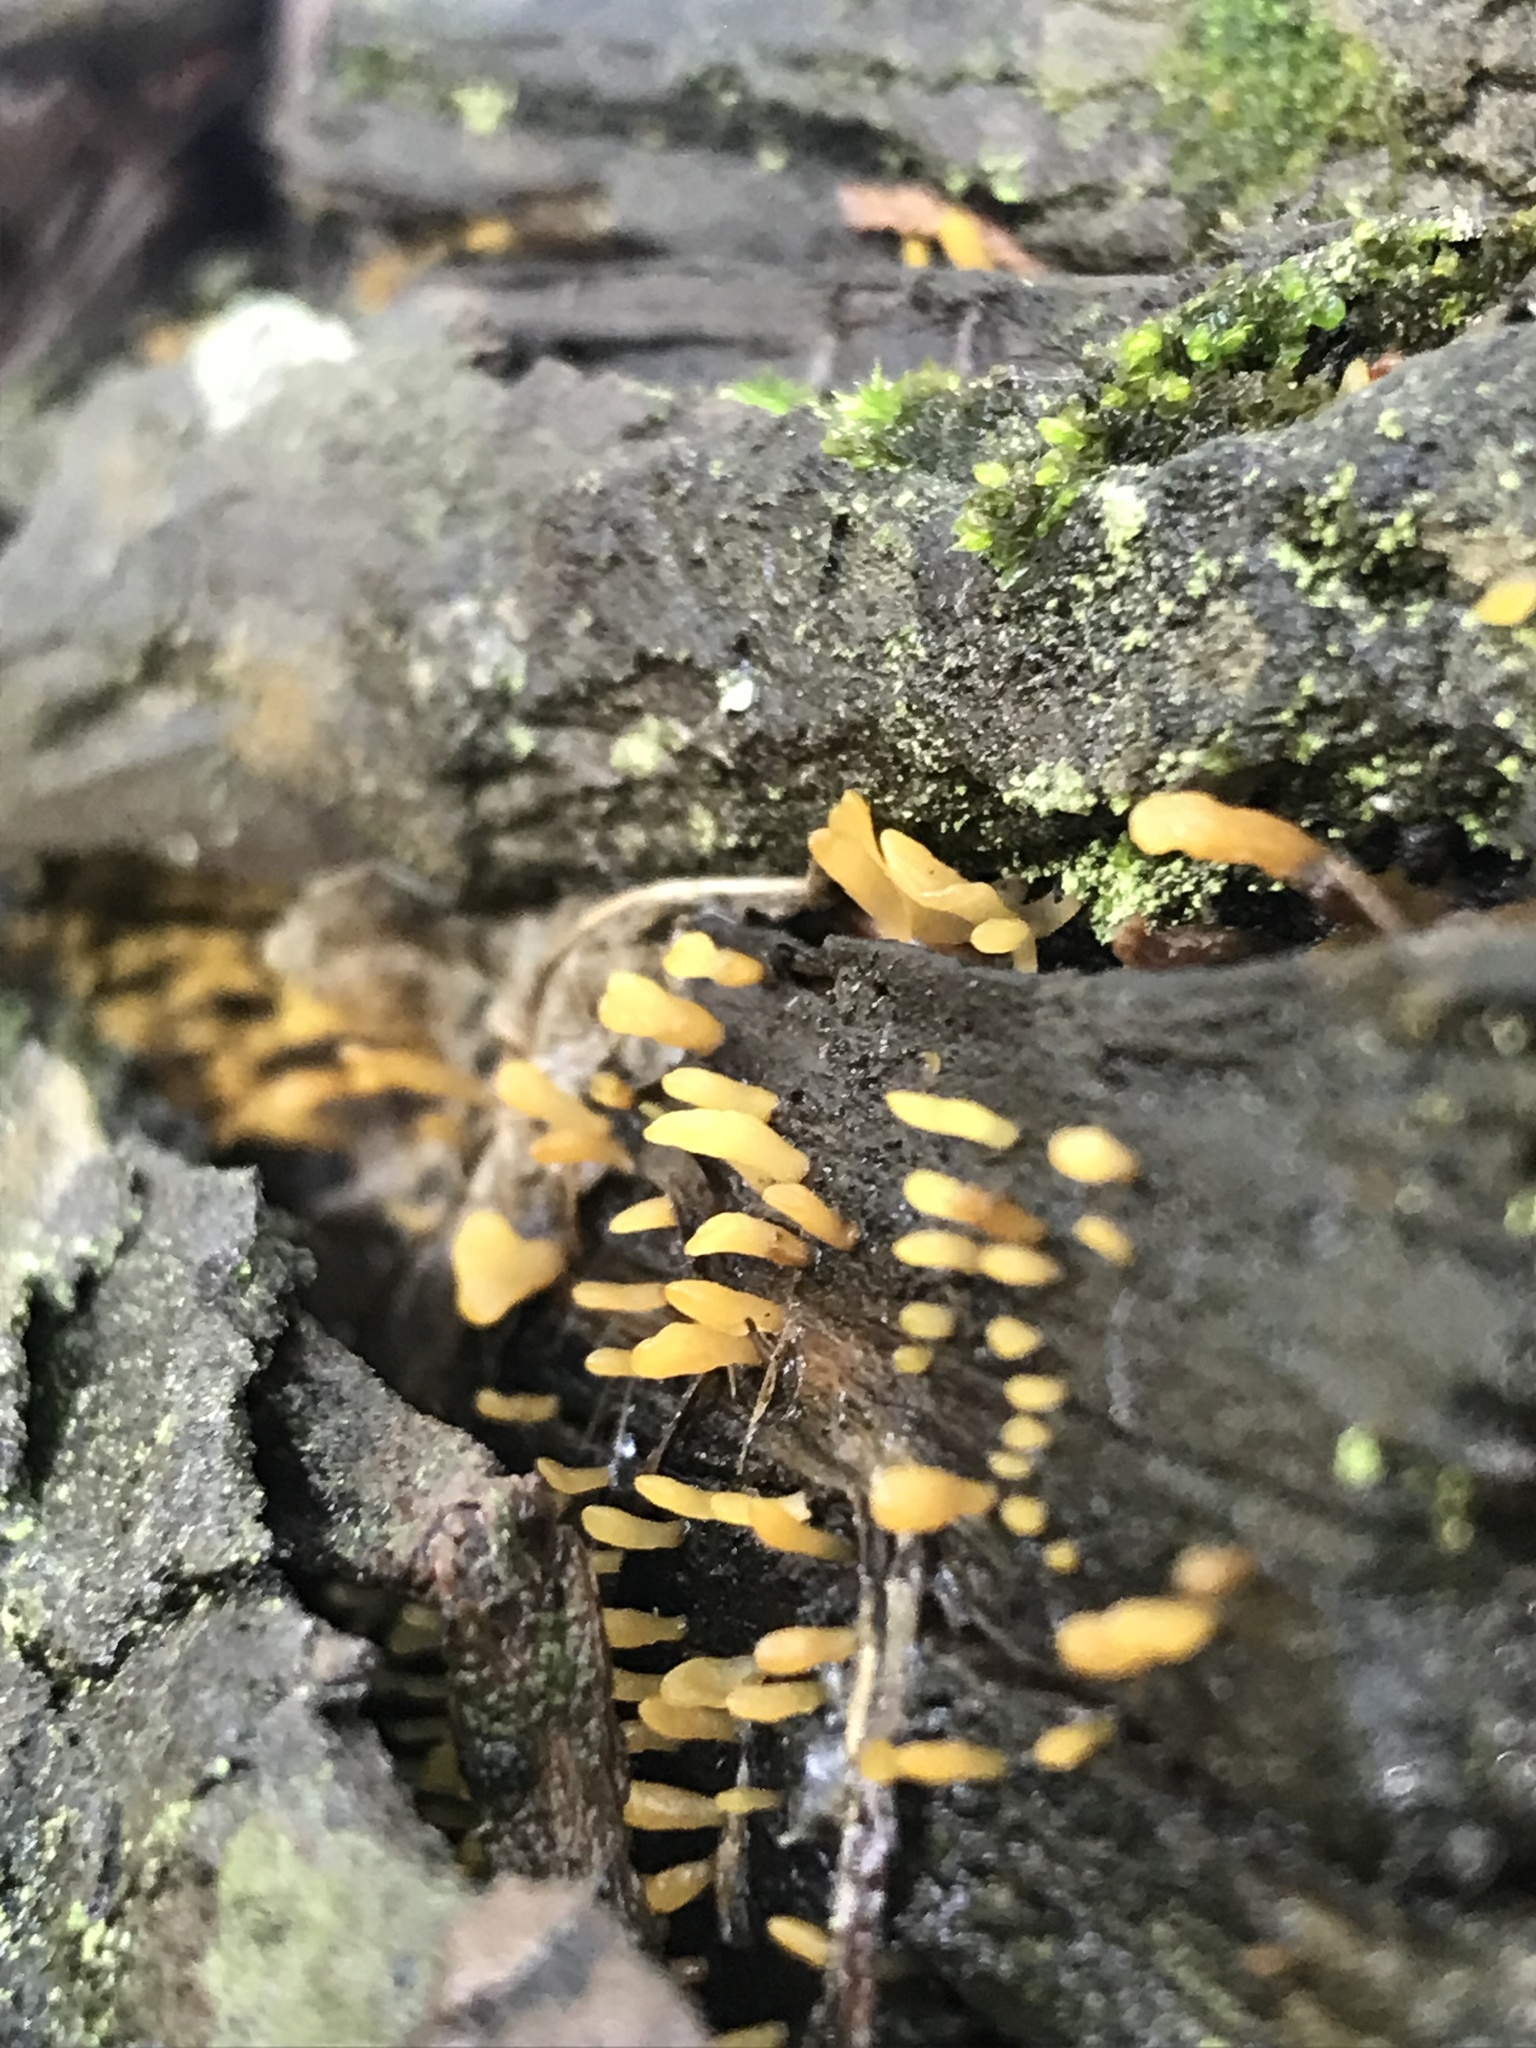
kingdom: Fungi
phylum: Basidiomycota
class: Dacrymycetes
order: Dacrymycetales
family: Dacrymycetaceae
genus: Calocera
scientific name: Calocera sinensis
